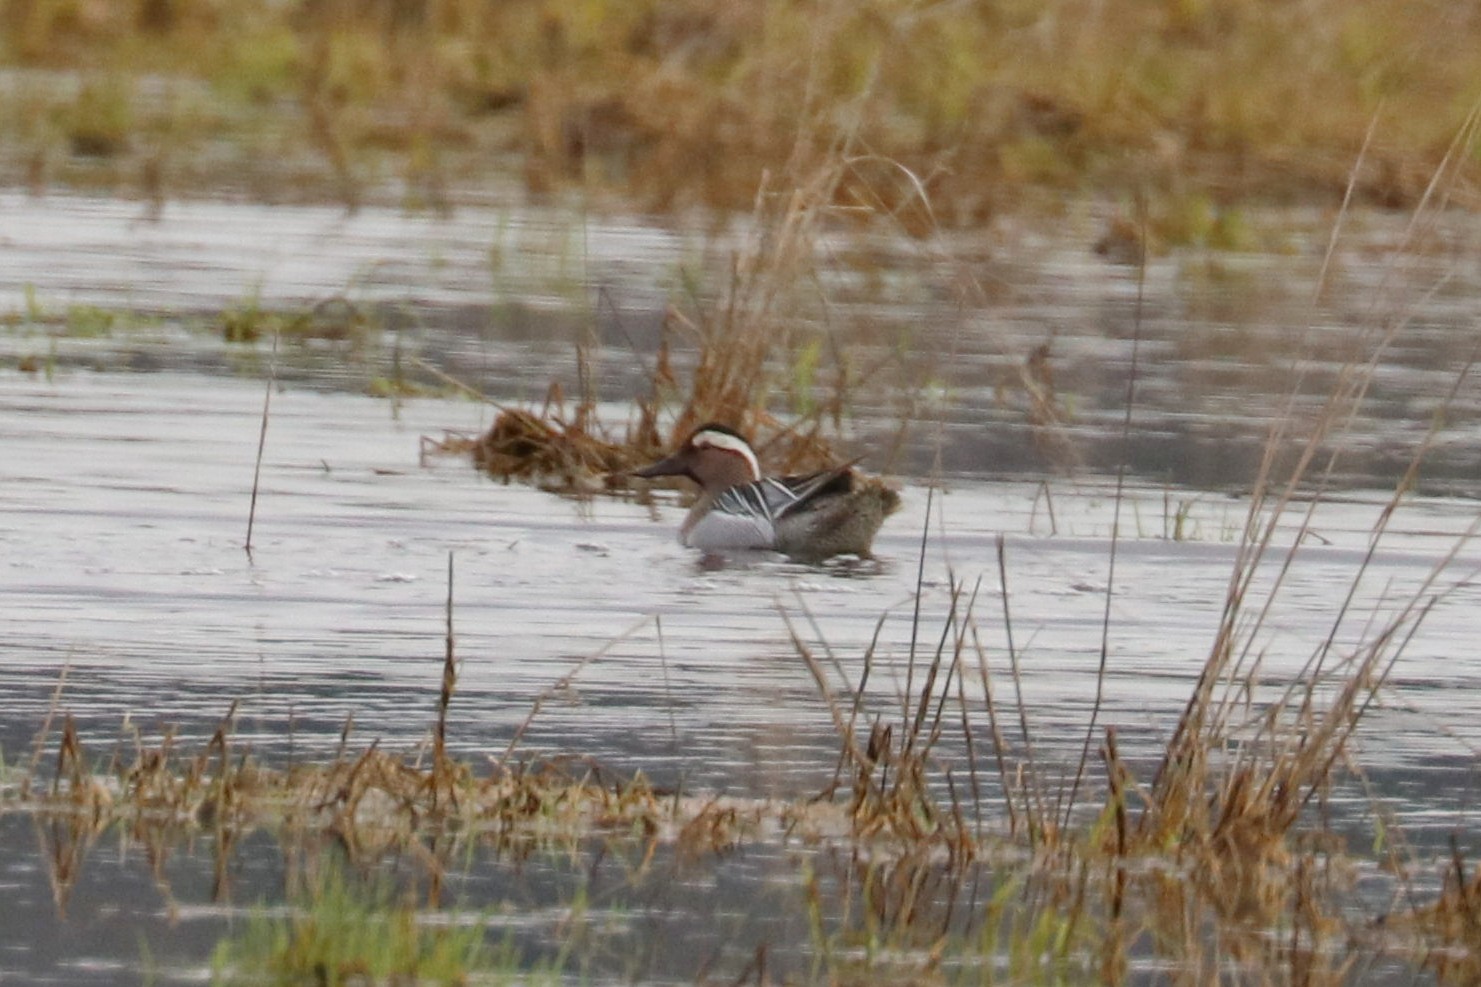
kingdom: Animalia
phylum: Chordata
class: Aves
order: Anseriformes
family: Anatidae
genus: Spatula
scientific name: Spatula querquedula
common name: Garganey
